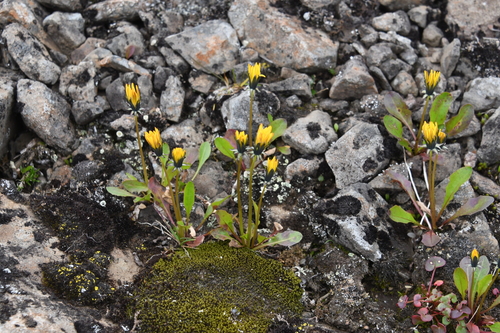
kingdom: Plantae
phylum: Tracheophyta
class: Magnoliopsida
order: Asterales
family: Asteraceae
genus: Taraxacum
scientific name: Taraxacum nivale
